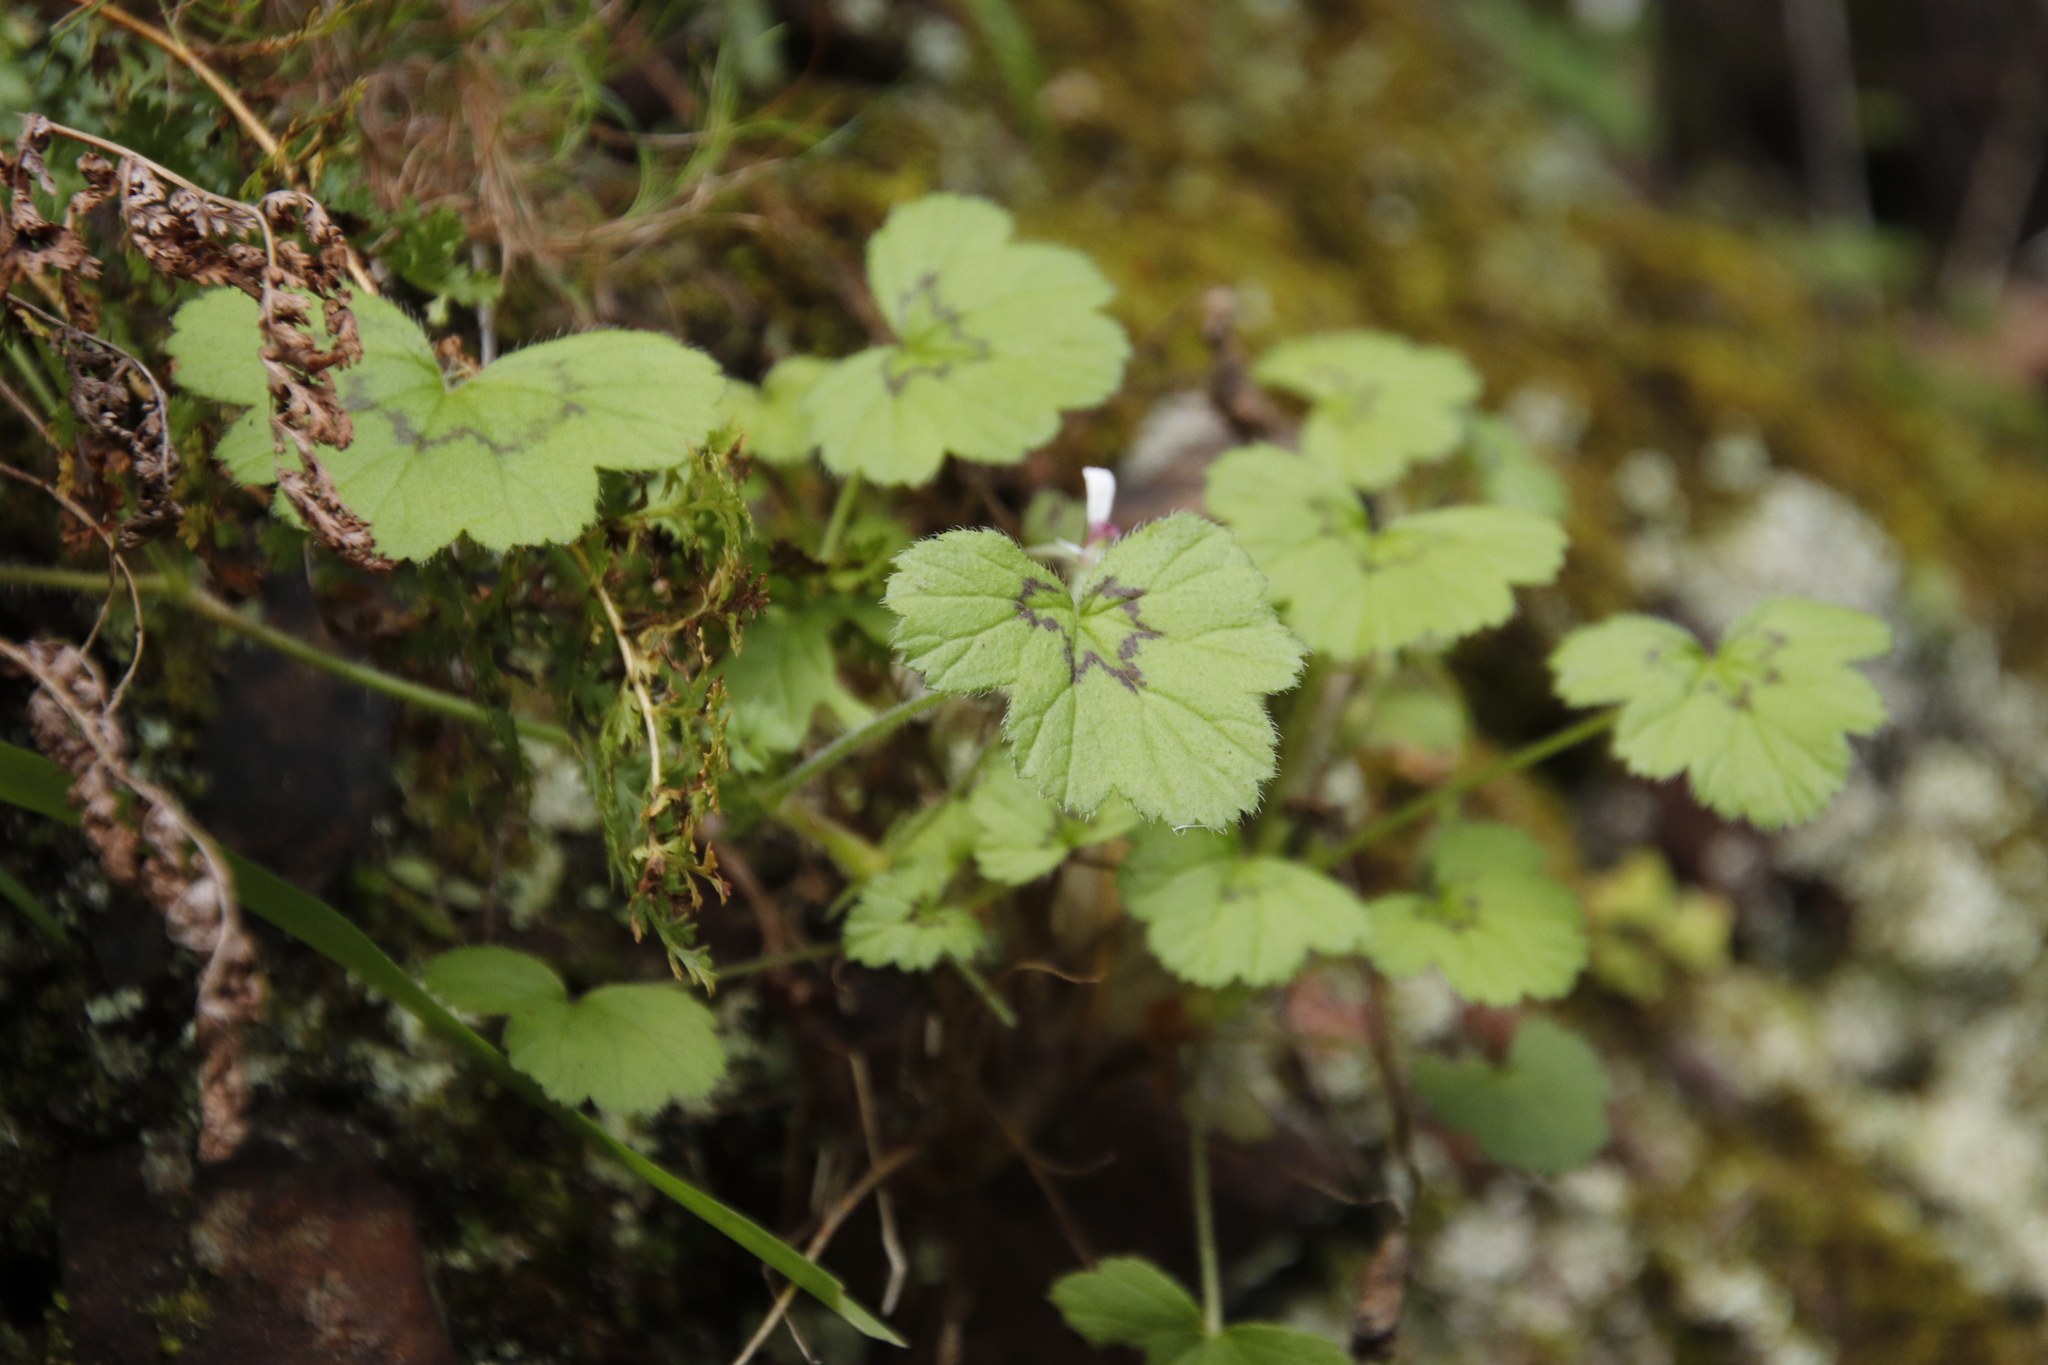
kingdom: Plantae
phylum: Tracheophyta
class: Magnoliopsida
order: Geraniales
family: Geraniaceae
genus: Pelargonium
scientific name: Pelargonium elongatum
